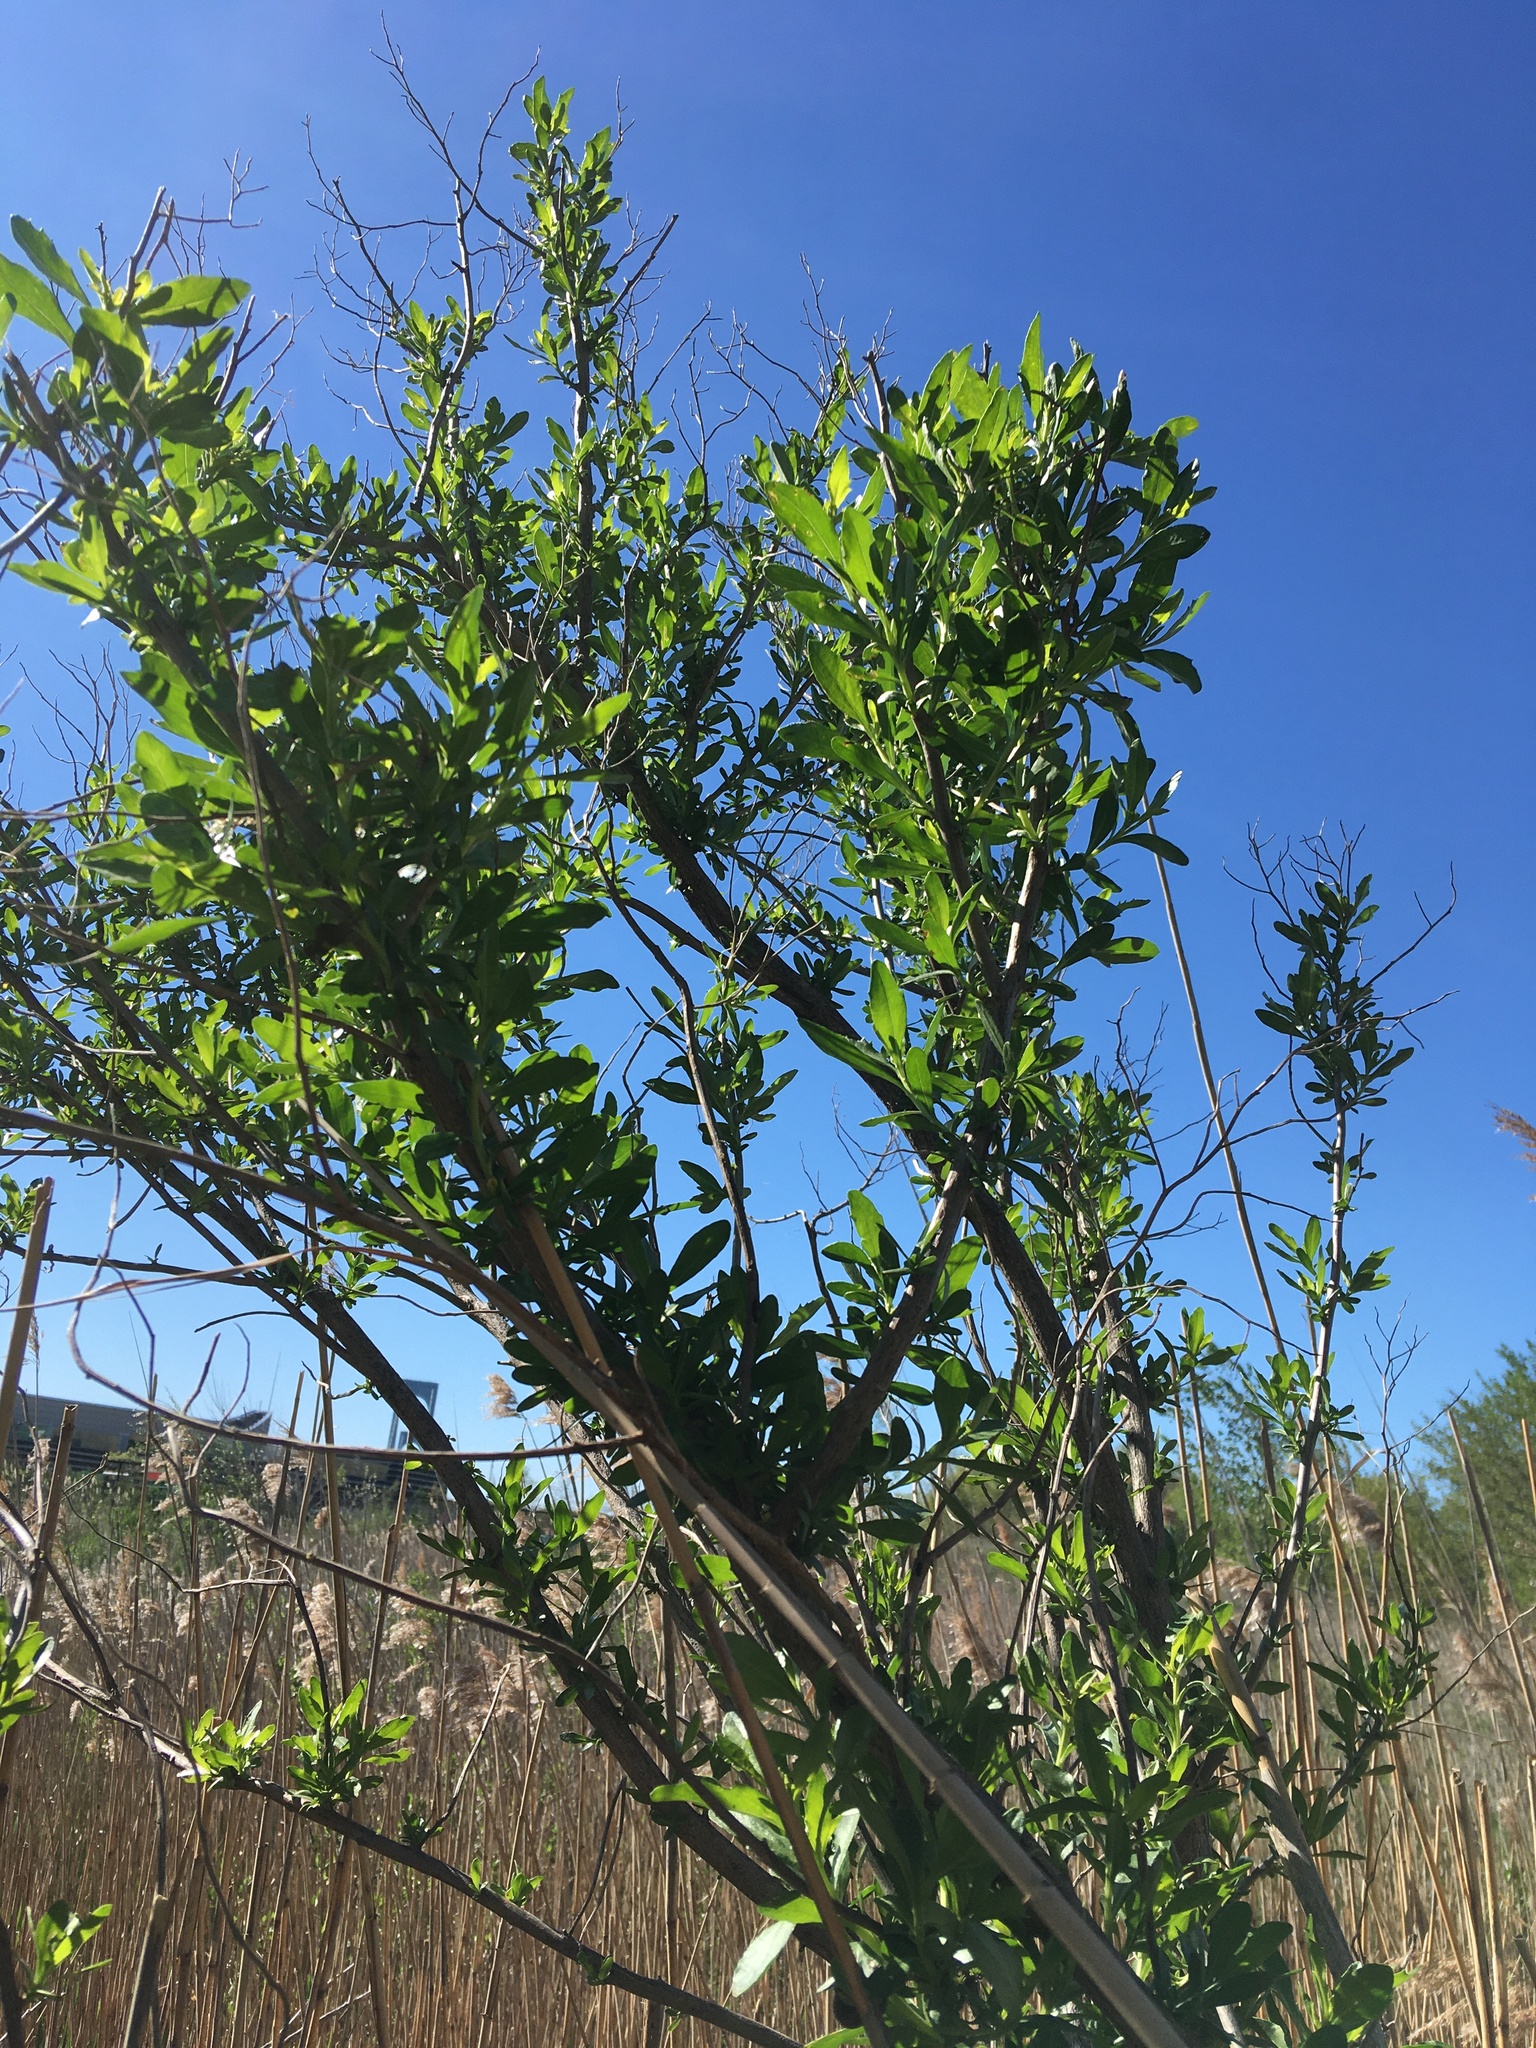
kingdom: Plantae
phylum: Tracheophyta
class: Magnoliopsida
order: Asterales
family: Asteraceae
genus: Baccharis
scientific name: Baccharis halimifolia
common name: Eastern baccharis
